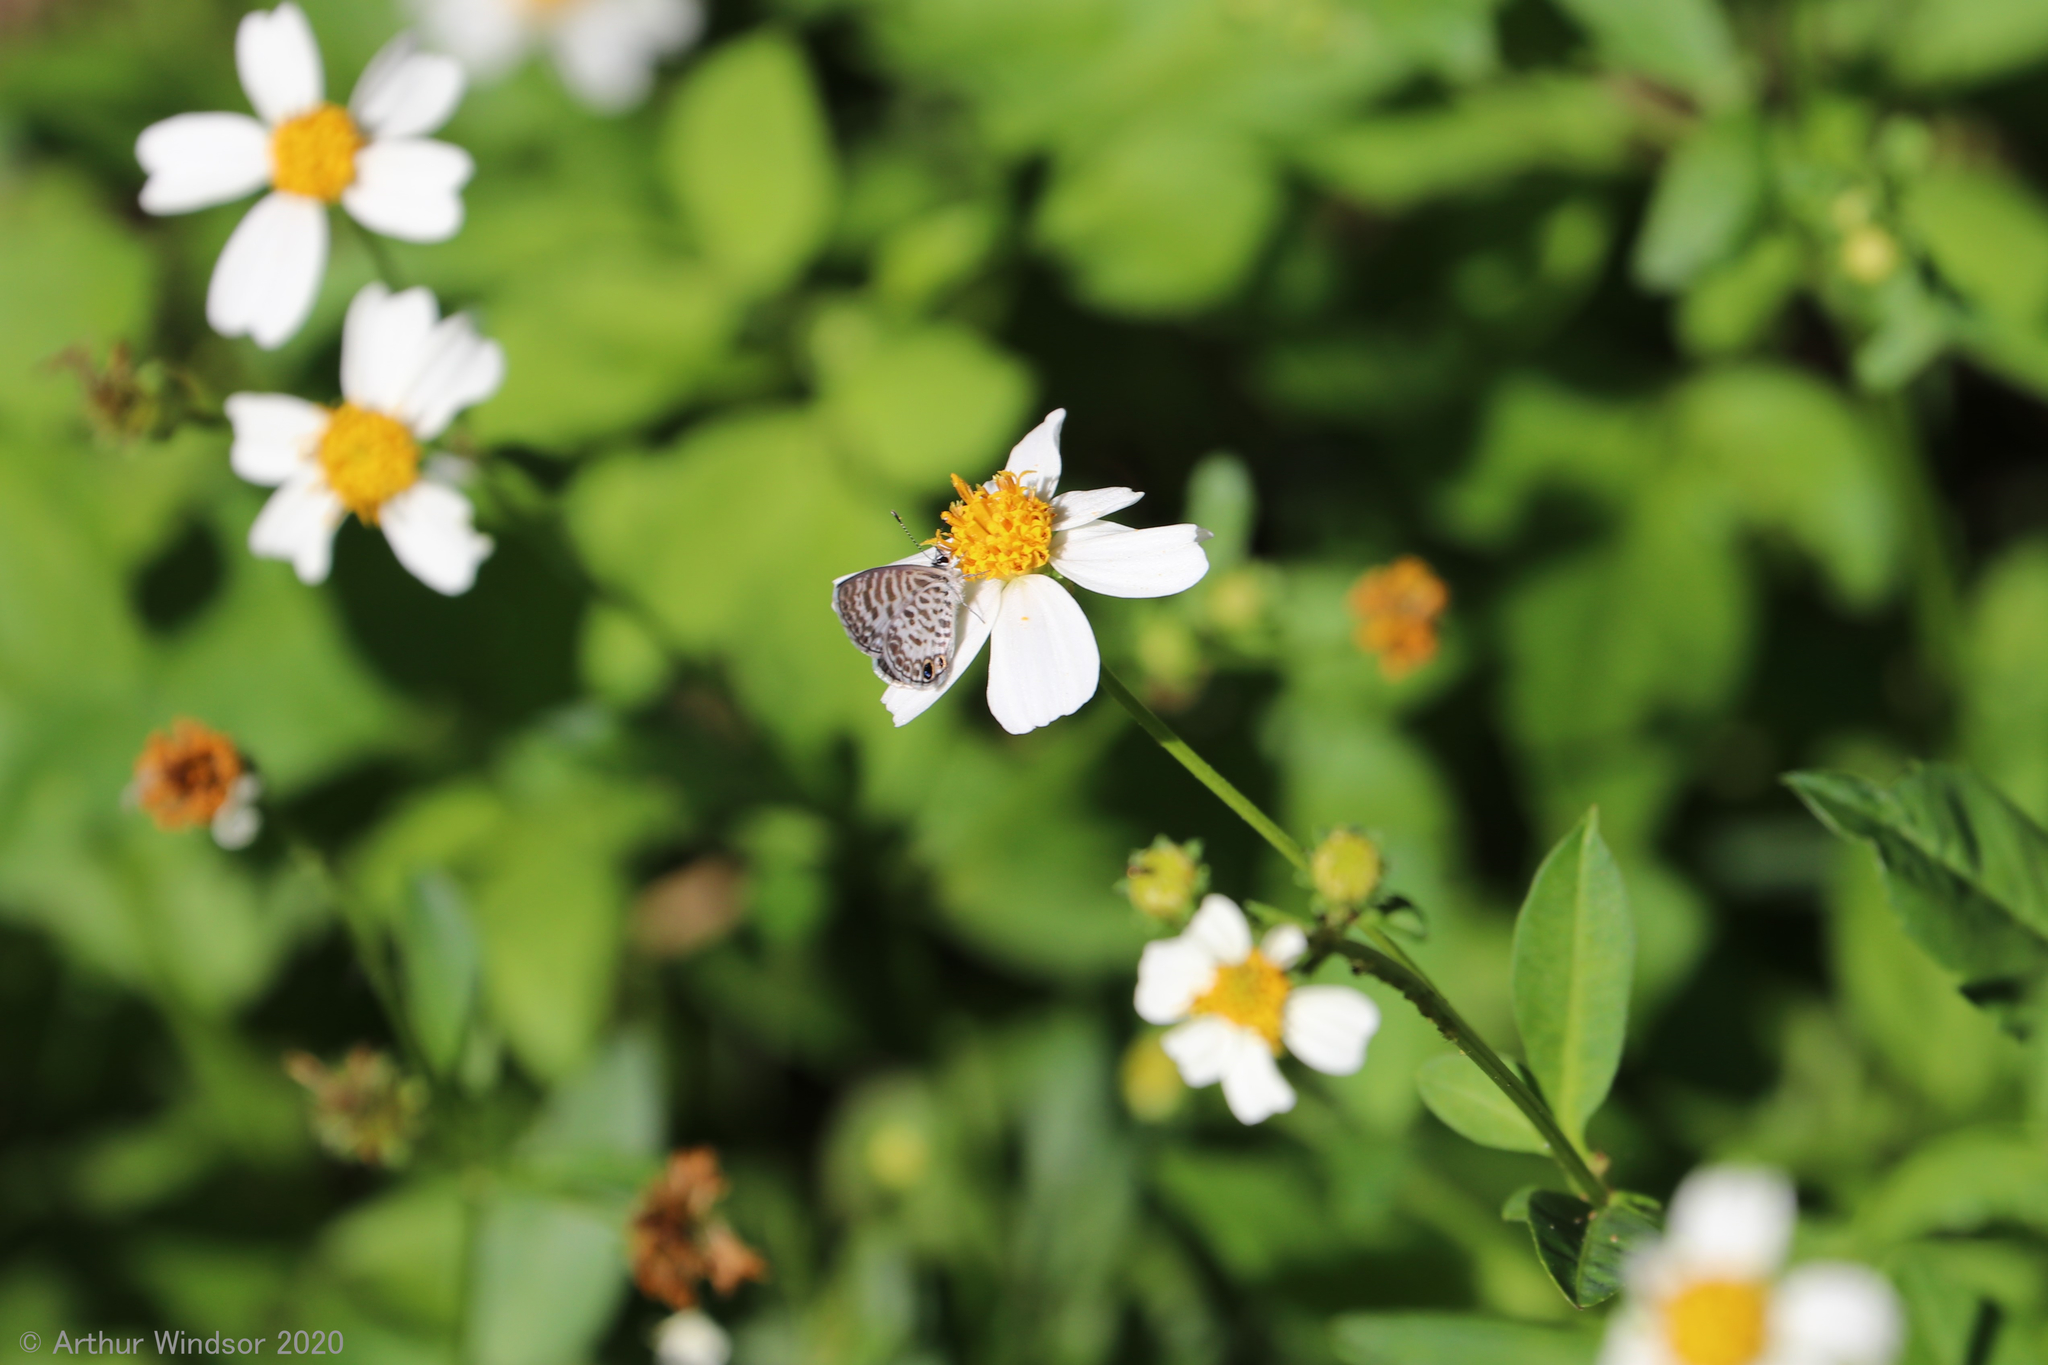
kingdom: Animalia
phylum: Arthropoda
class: Insecta
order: Lepidoptera
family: Lycaenidae
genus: Leptotes
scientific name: Leptotes cassius
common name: Cassius blue
